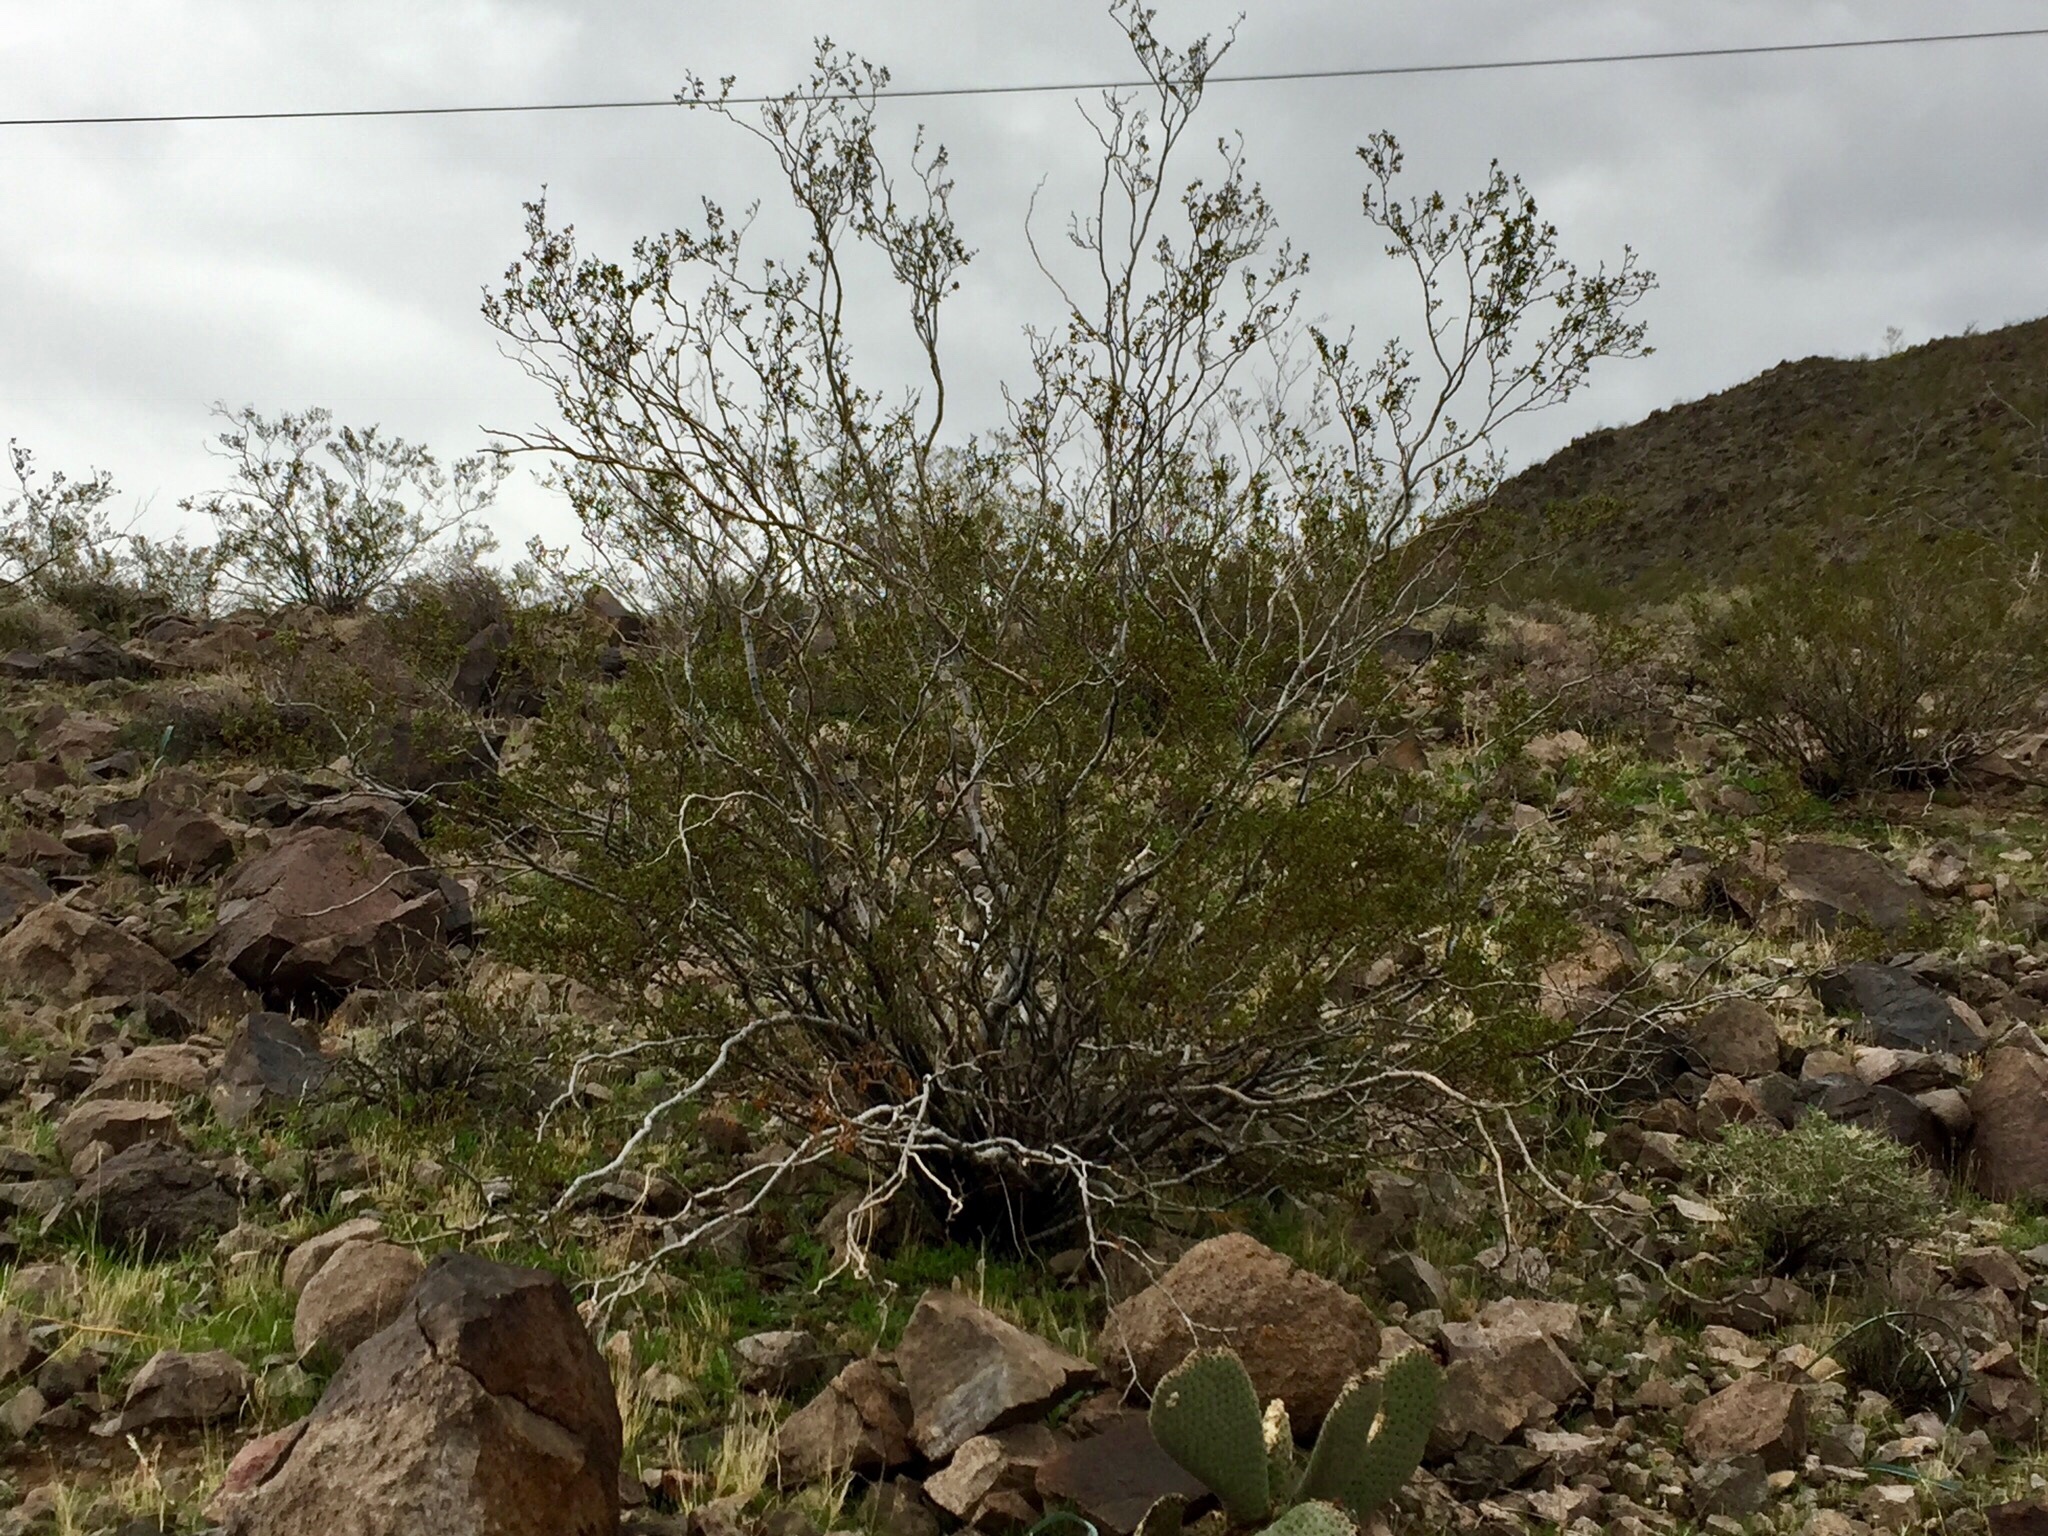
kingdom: Plantae
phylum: Tracheophyta
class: Magnoliopsida
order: Zygophyllales
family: Zygophyllaceae
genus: Larrea
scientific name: Larrea tridentata
